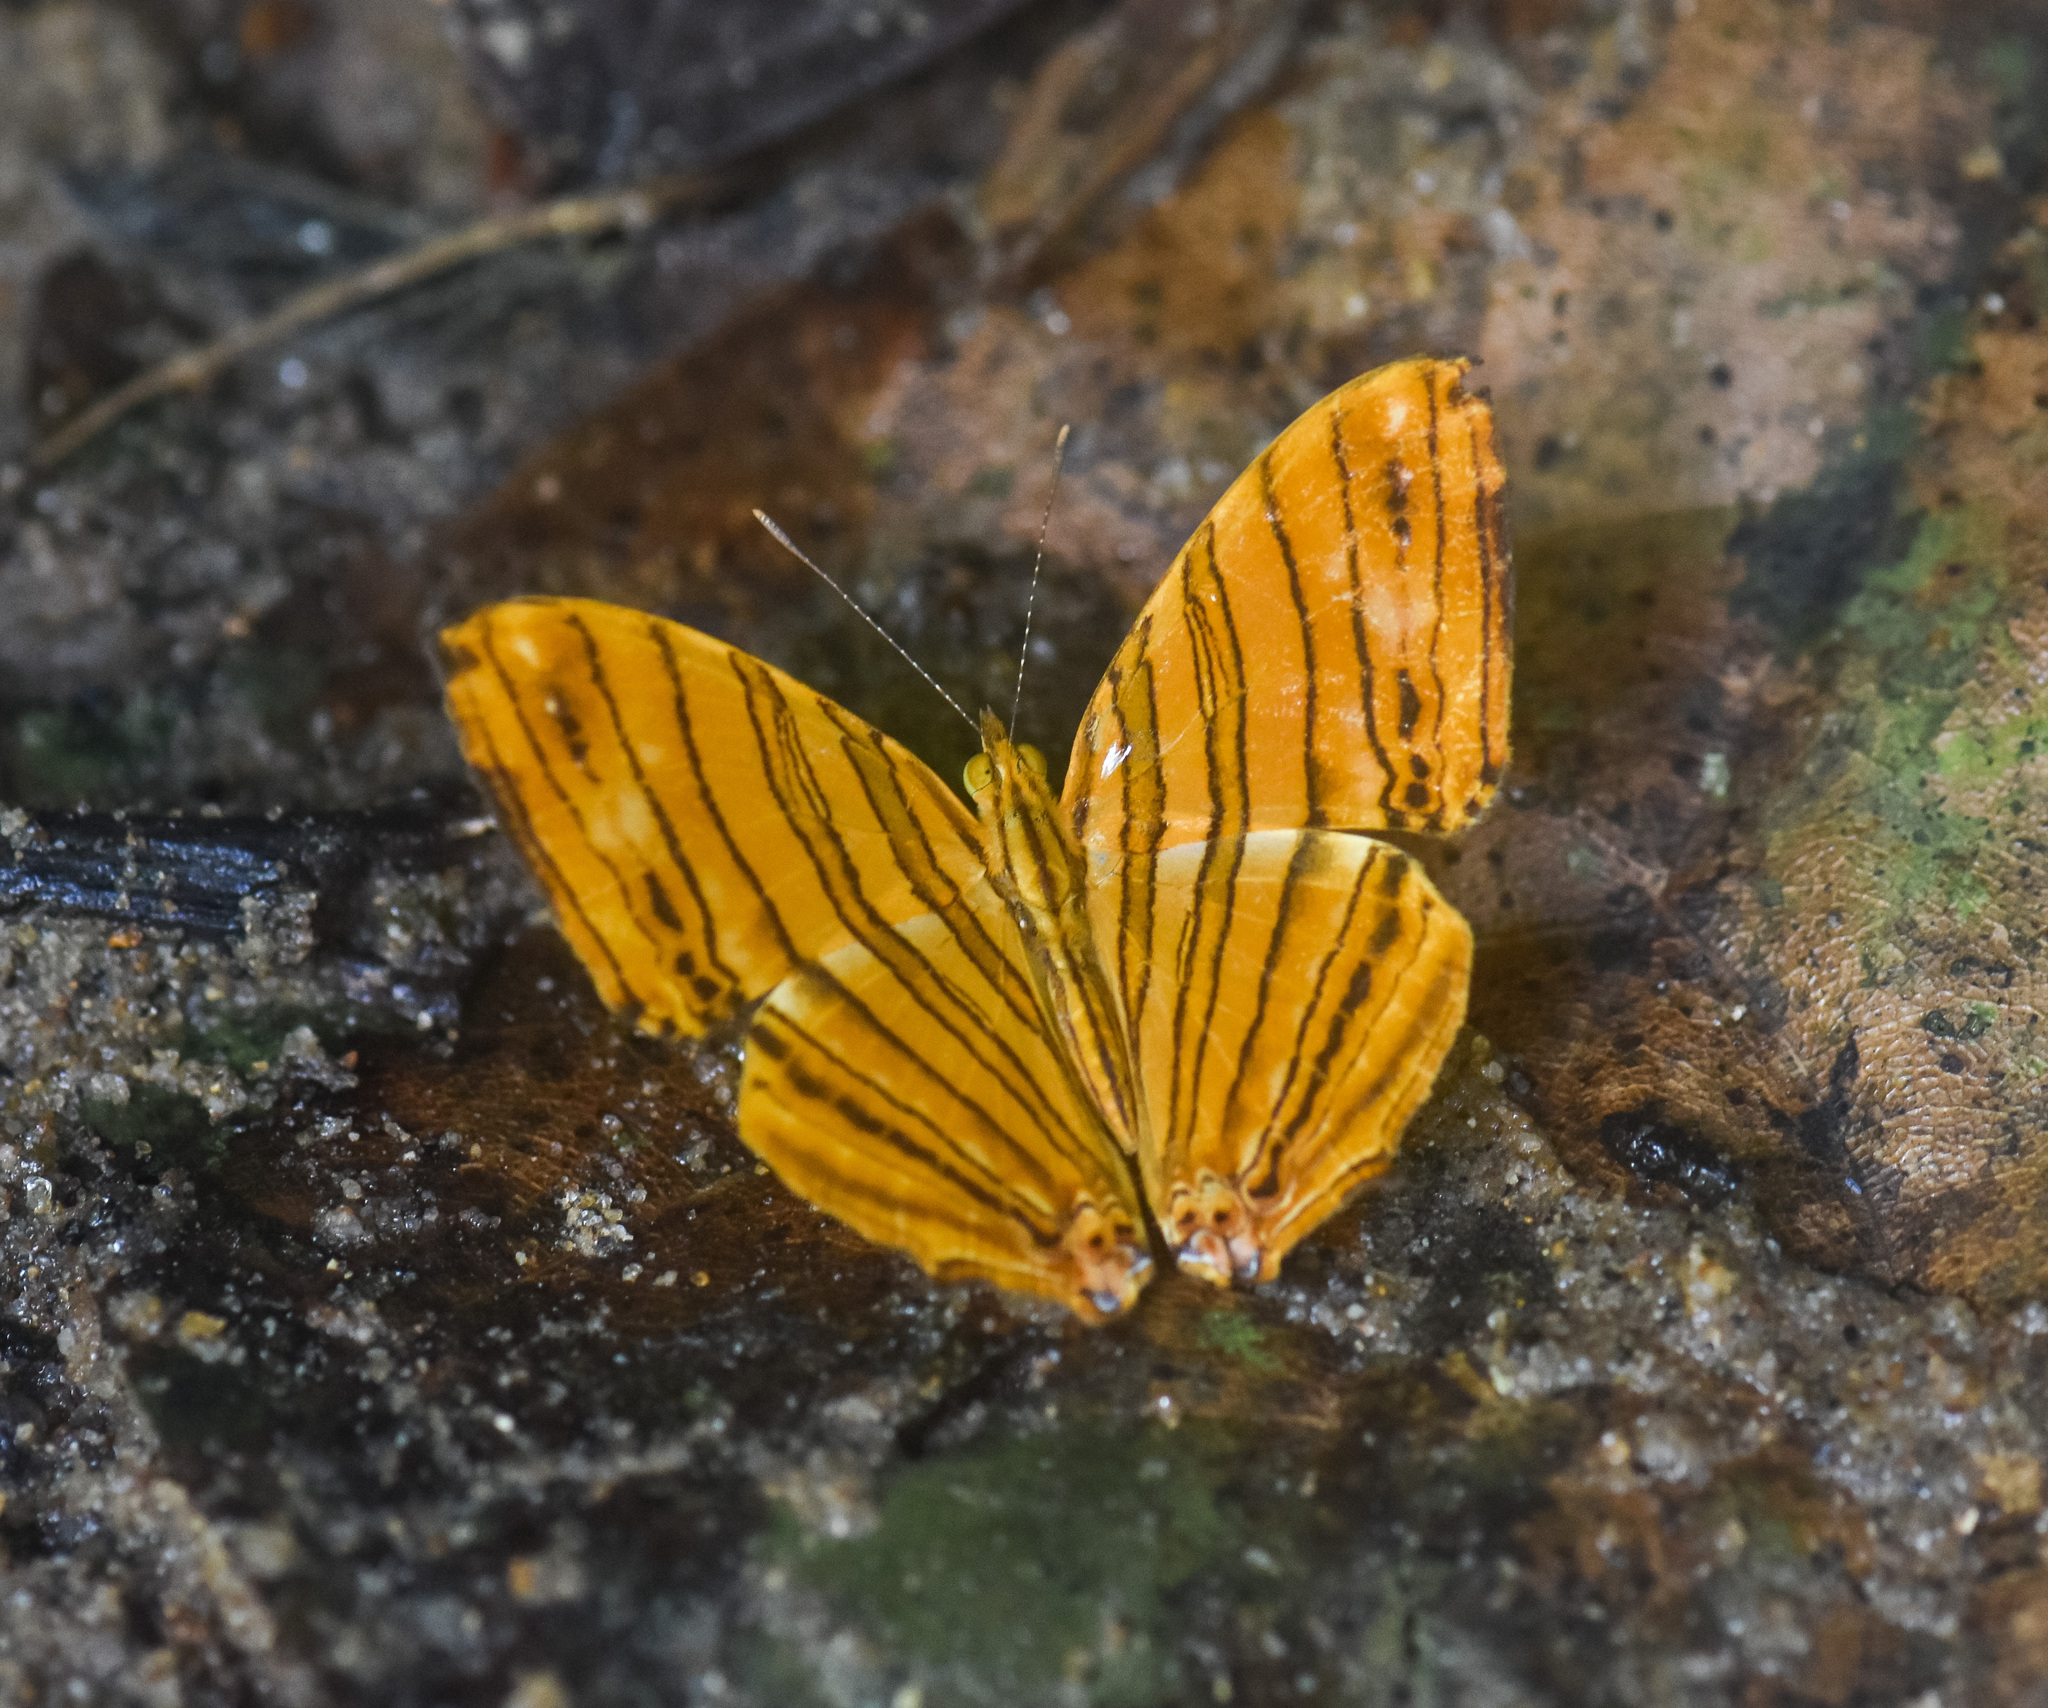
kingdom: Animalia
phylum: Arthropoda
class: Insecta
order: Lepidoptera
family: Nymphalidae
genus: Chersonesia
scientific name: Chersonesia risa
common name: Common maplet
